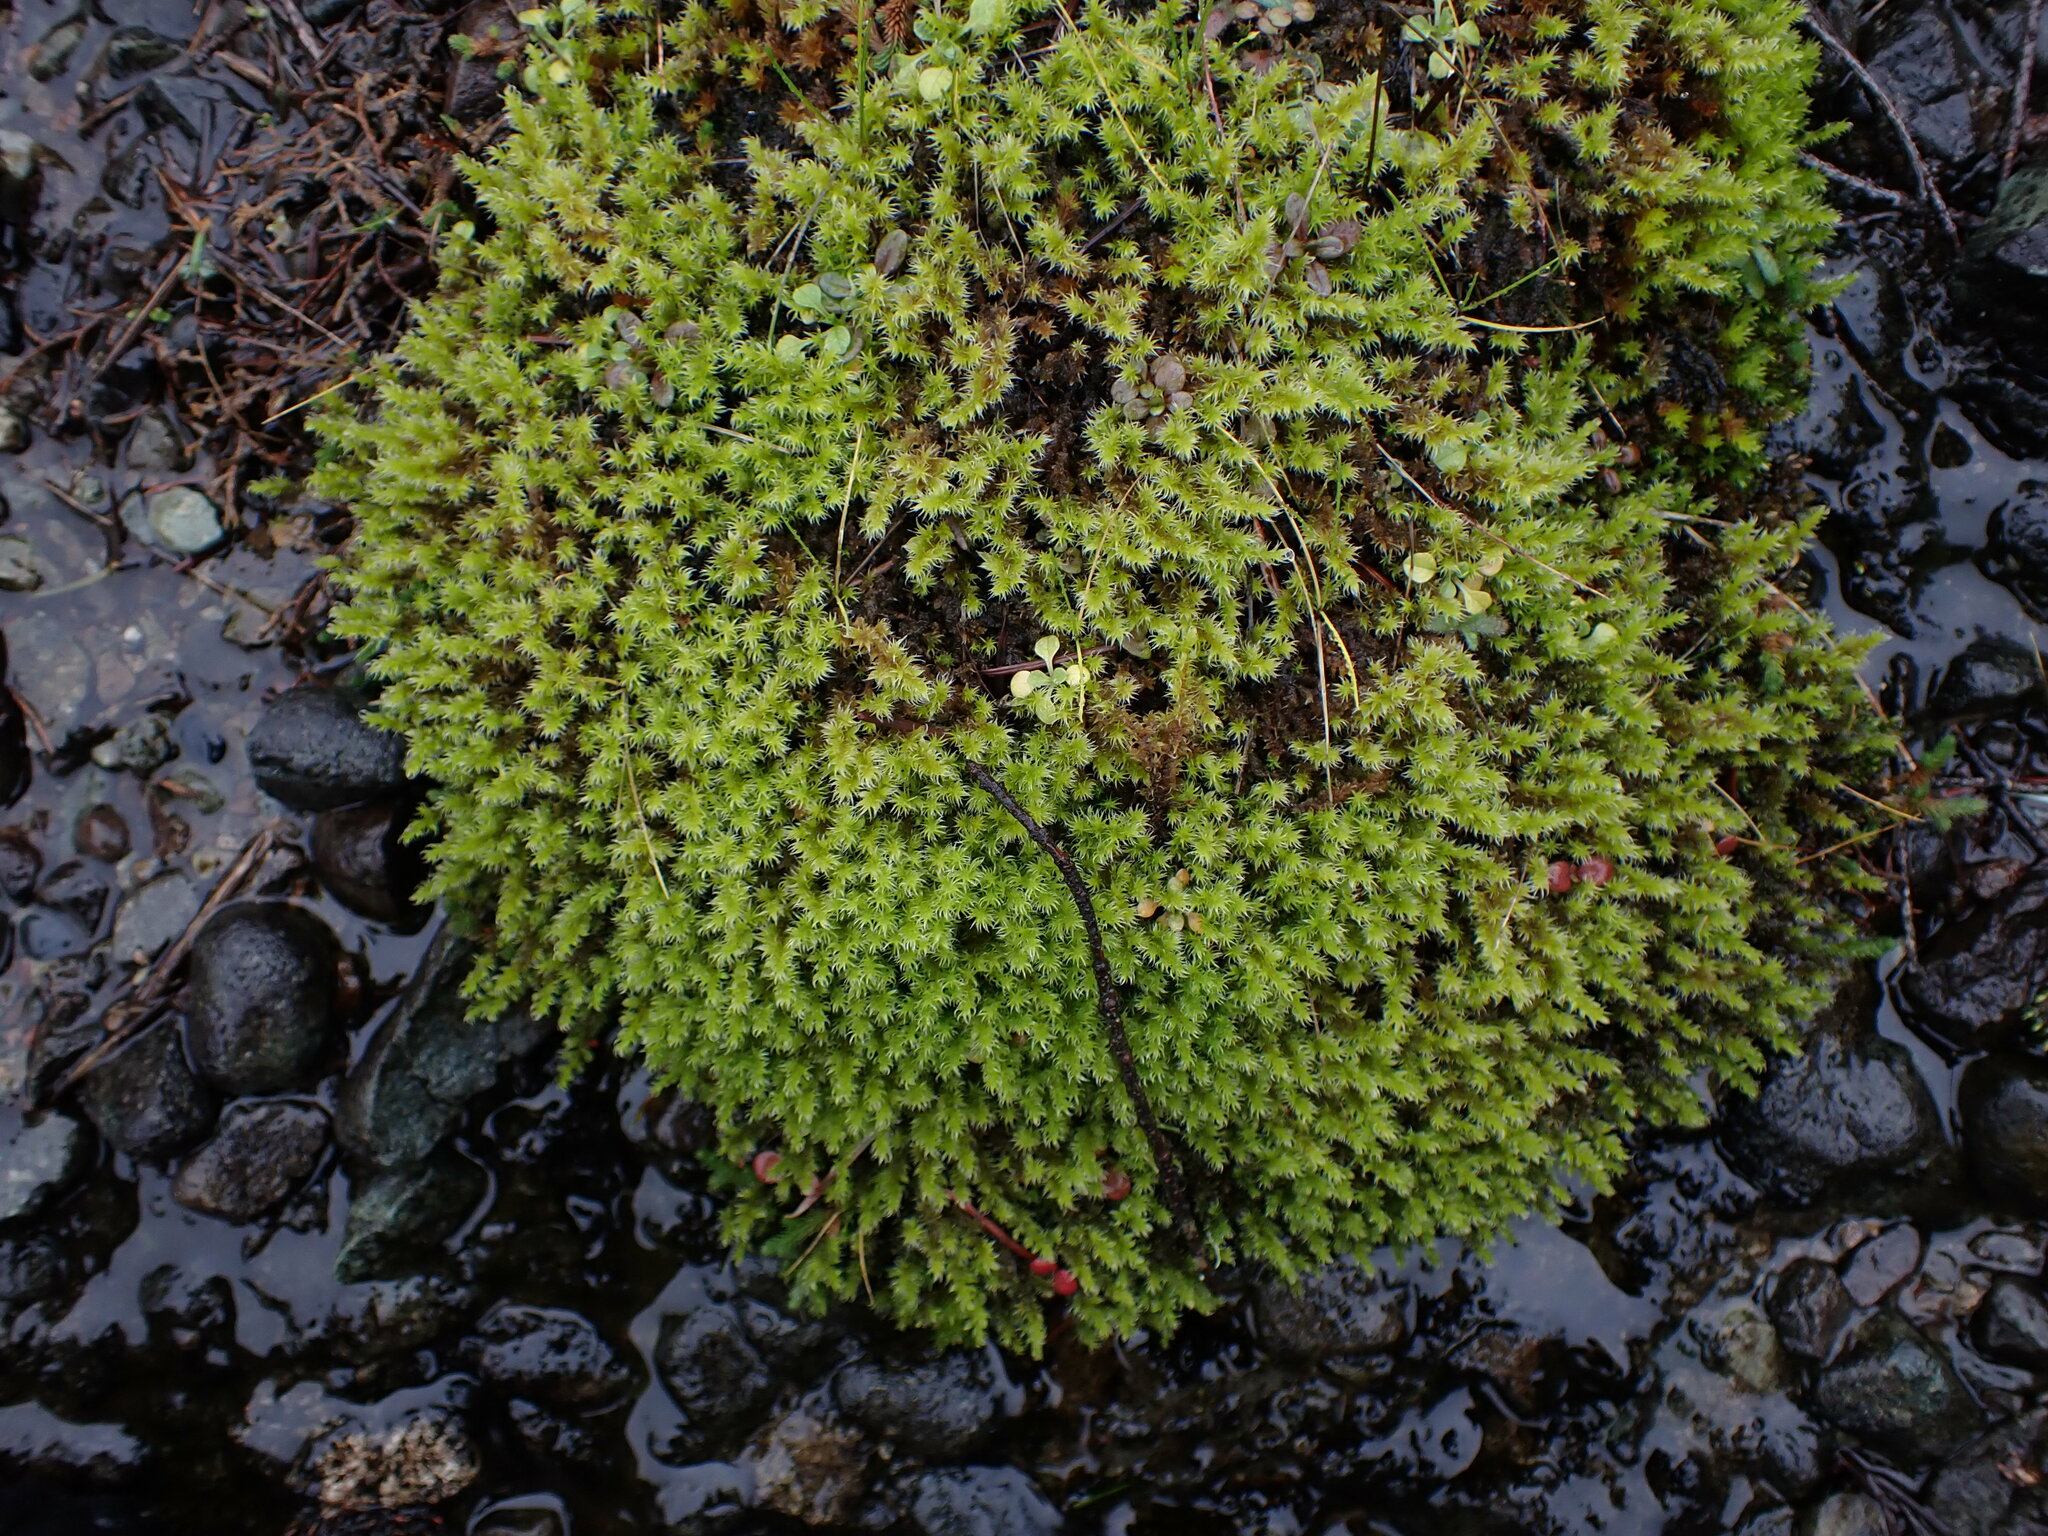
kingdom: Plantae
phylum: Bryophyta
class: Bryopsida
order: Grimmiales
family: Grimmiaceae
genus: Niphotrichum
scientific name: Niphotrichum elongatum
